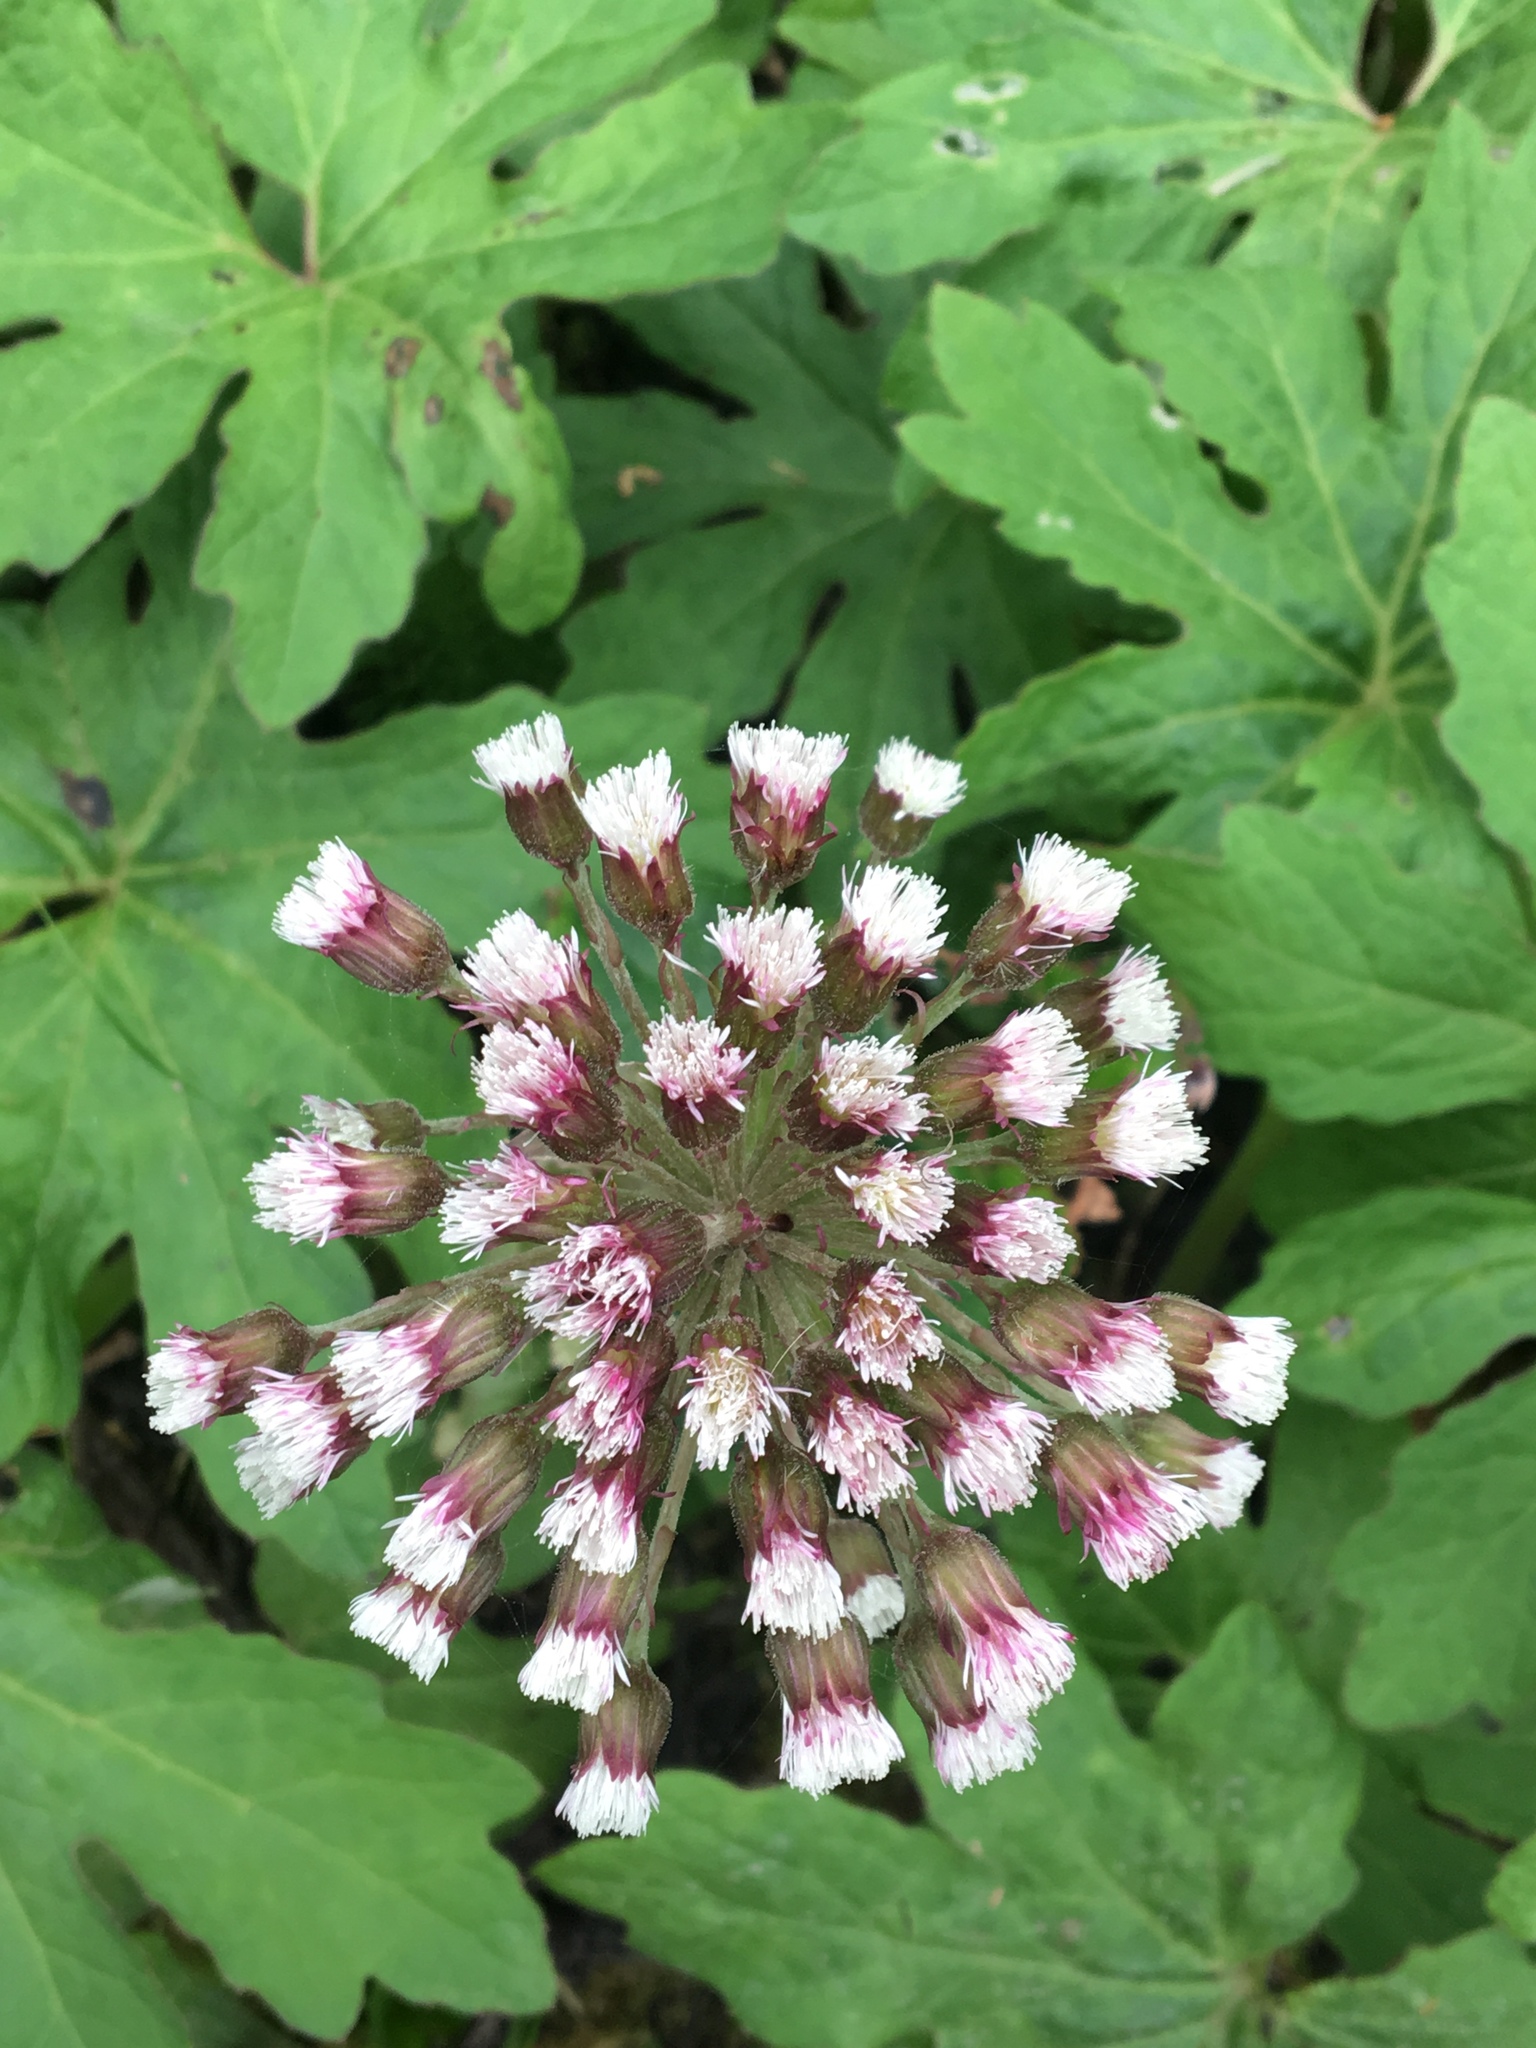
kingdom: Plantae
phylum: Tracheophyta
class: Magnoliopsida
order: Asterales
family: Asteraceae
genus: Petasites
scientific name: Petasites frigidus
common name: Arctic butterbur
